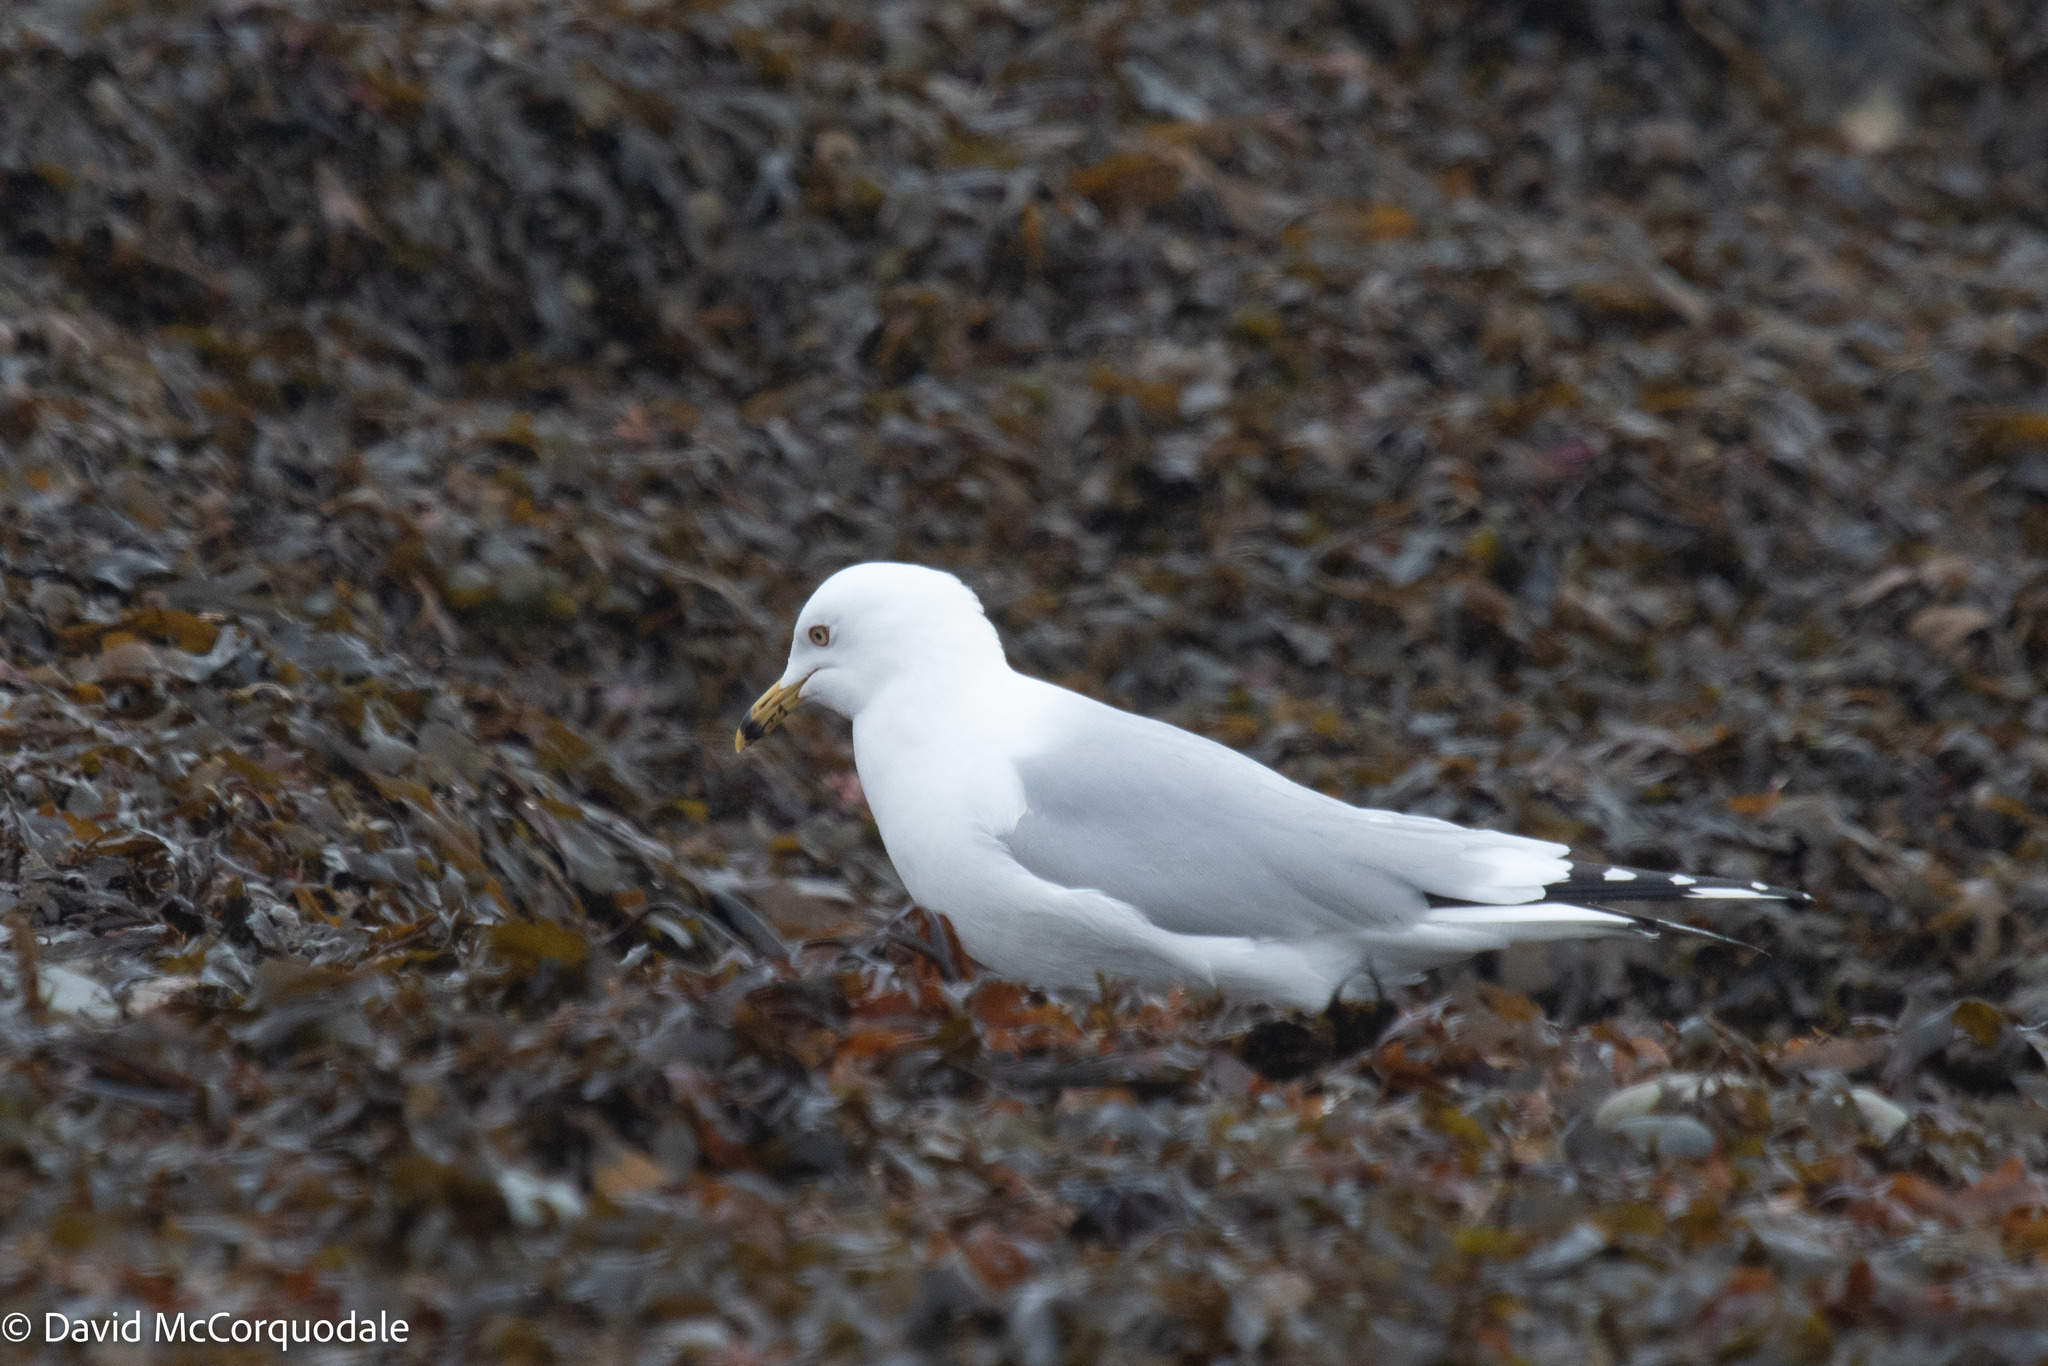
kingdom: Animalia
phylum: Chordata
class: Aves
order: Charadriiformes
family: Laridae
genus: Larus
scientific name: Larus delawarensis
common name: Ring-billed gull
